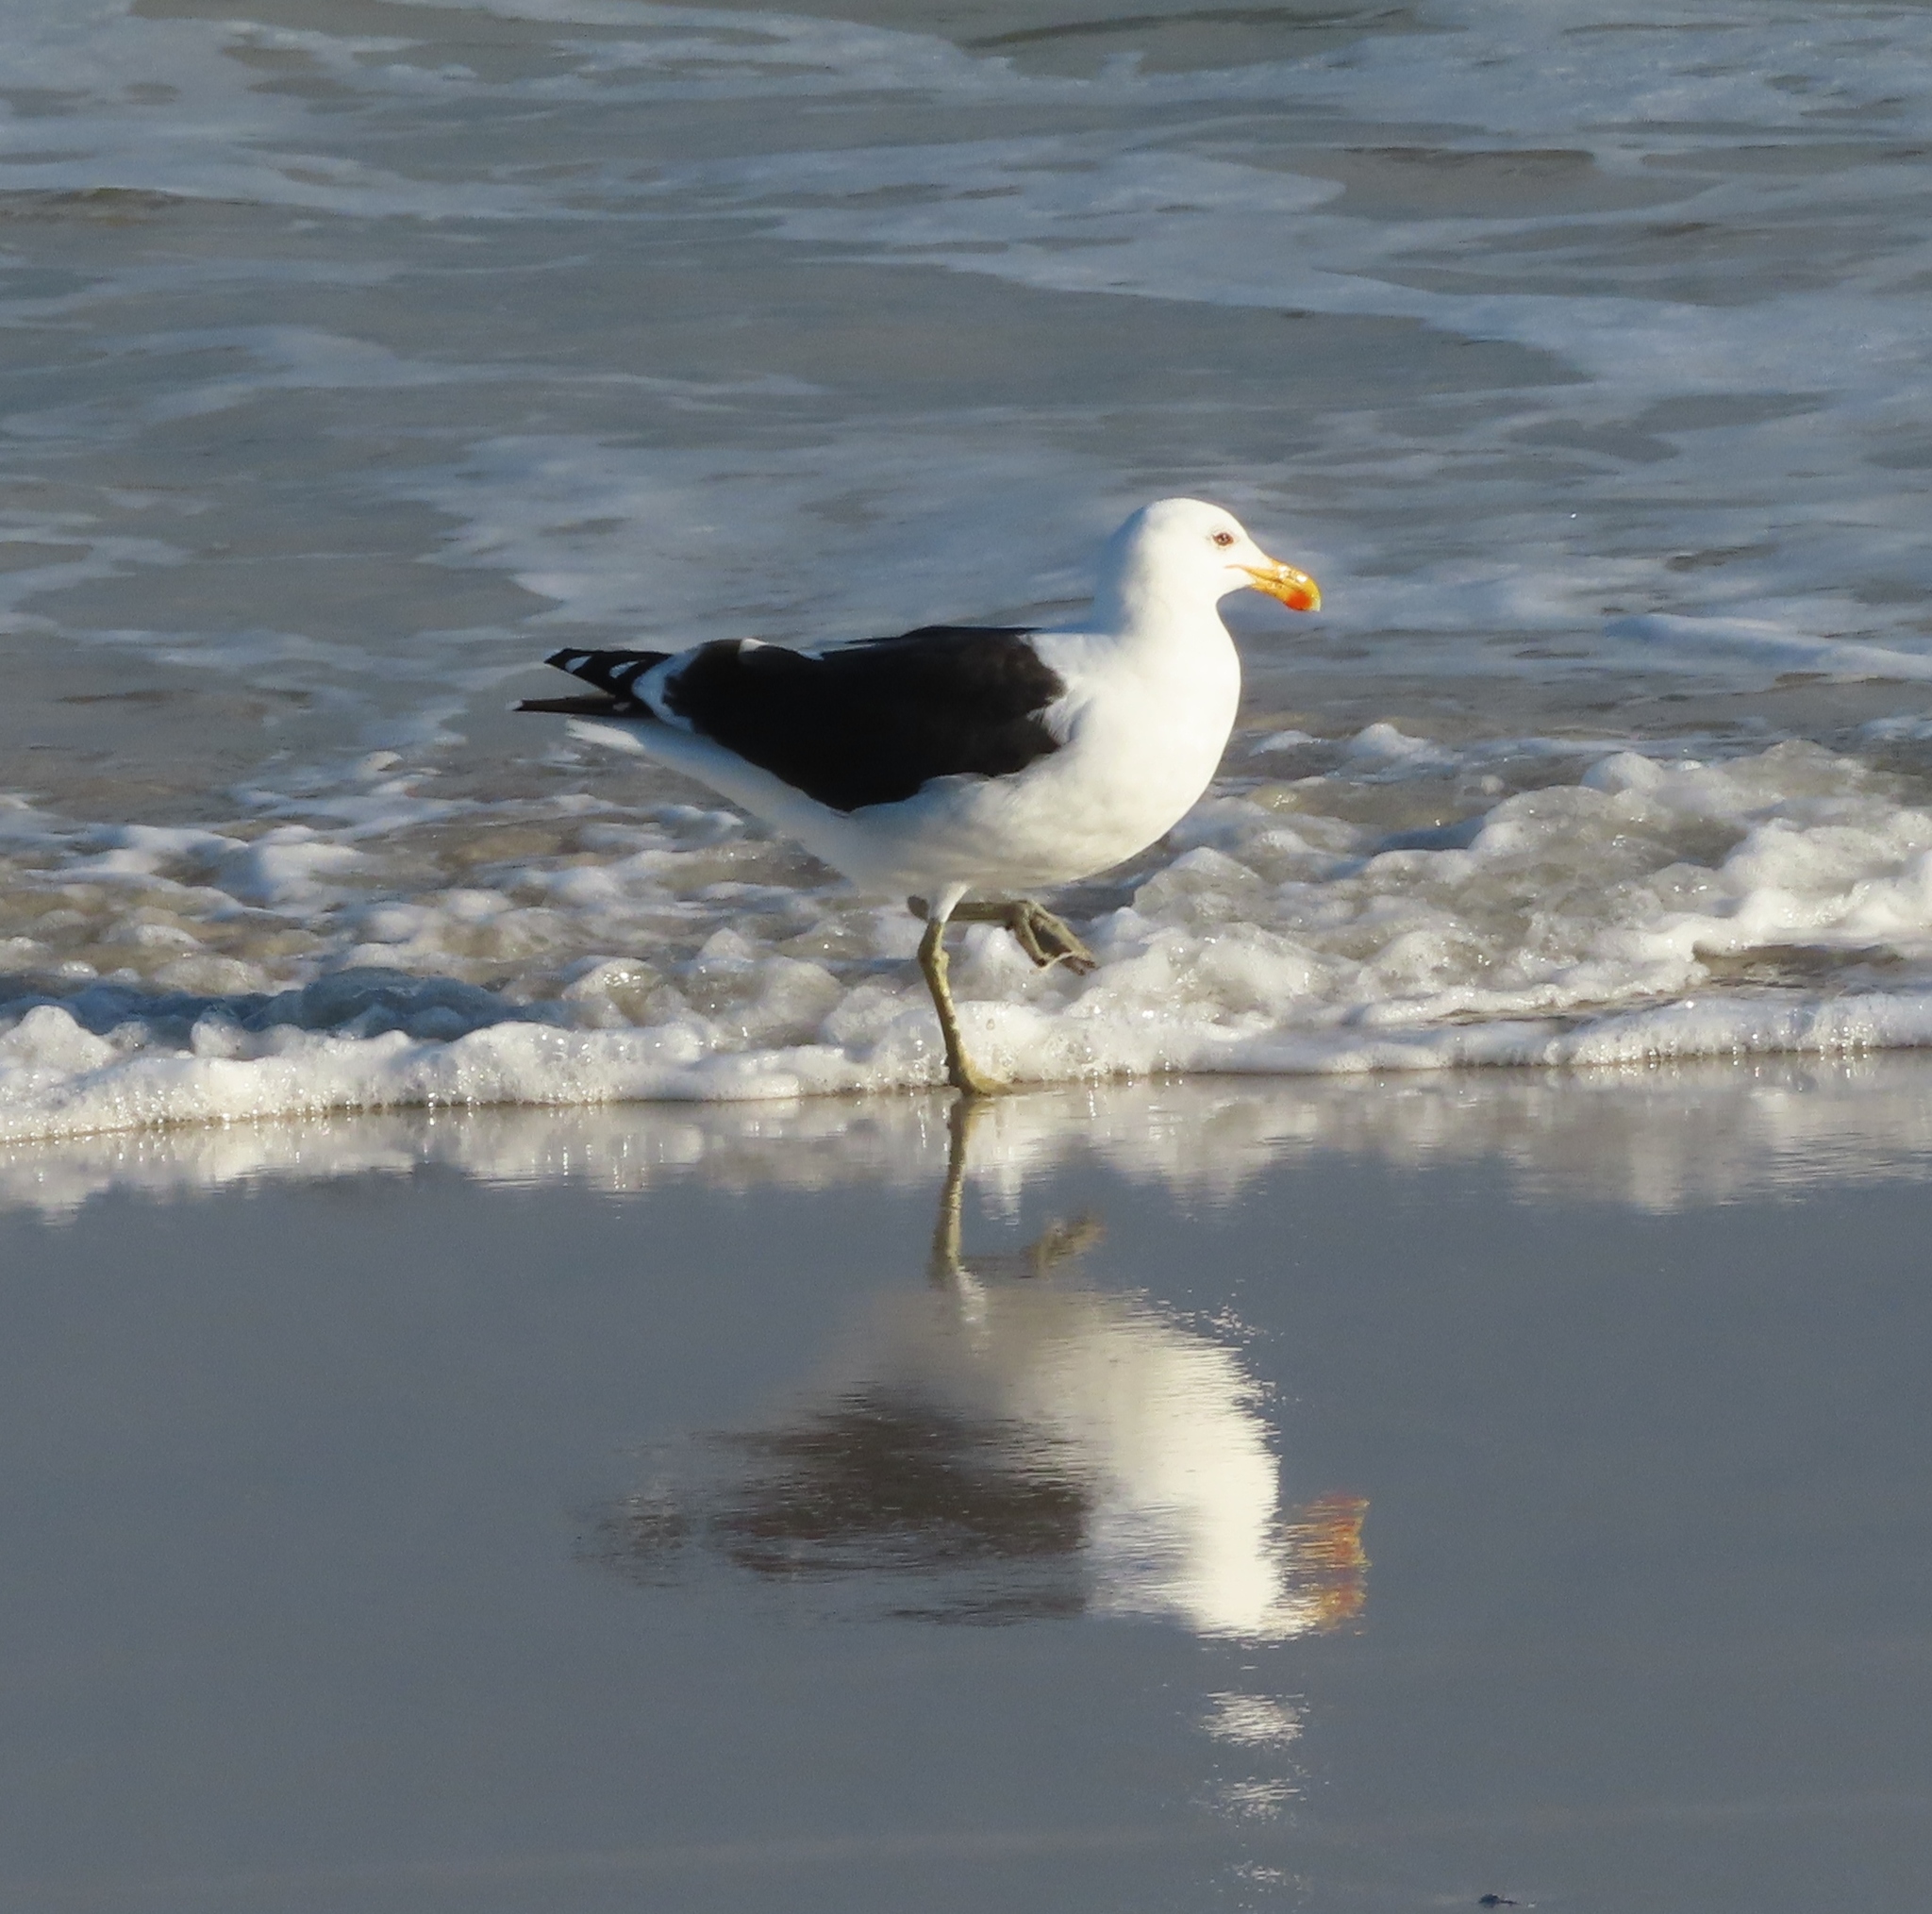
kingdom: Animalia
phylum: Chordata
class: Aves
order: Charadriiformes
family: Laridae
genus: Larus
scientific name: Larus dominicanus
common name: Kelp gull
